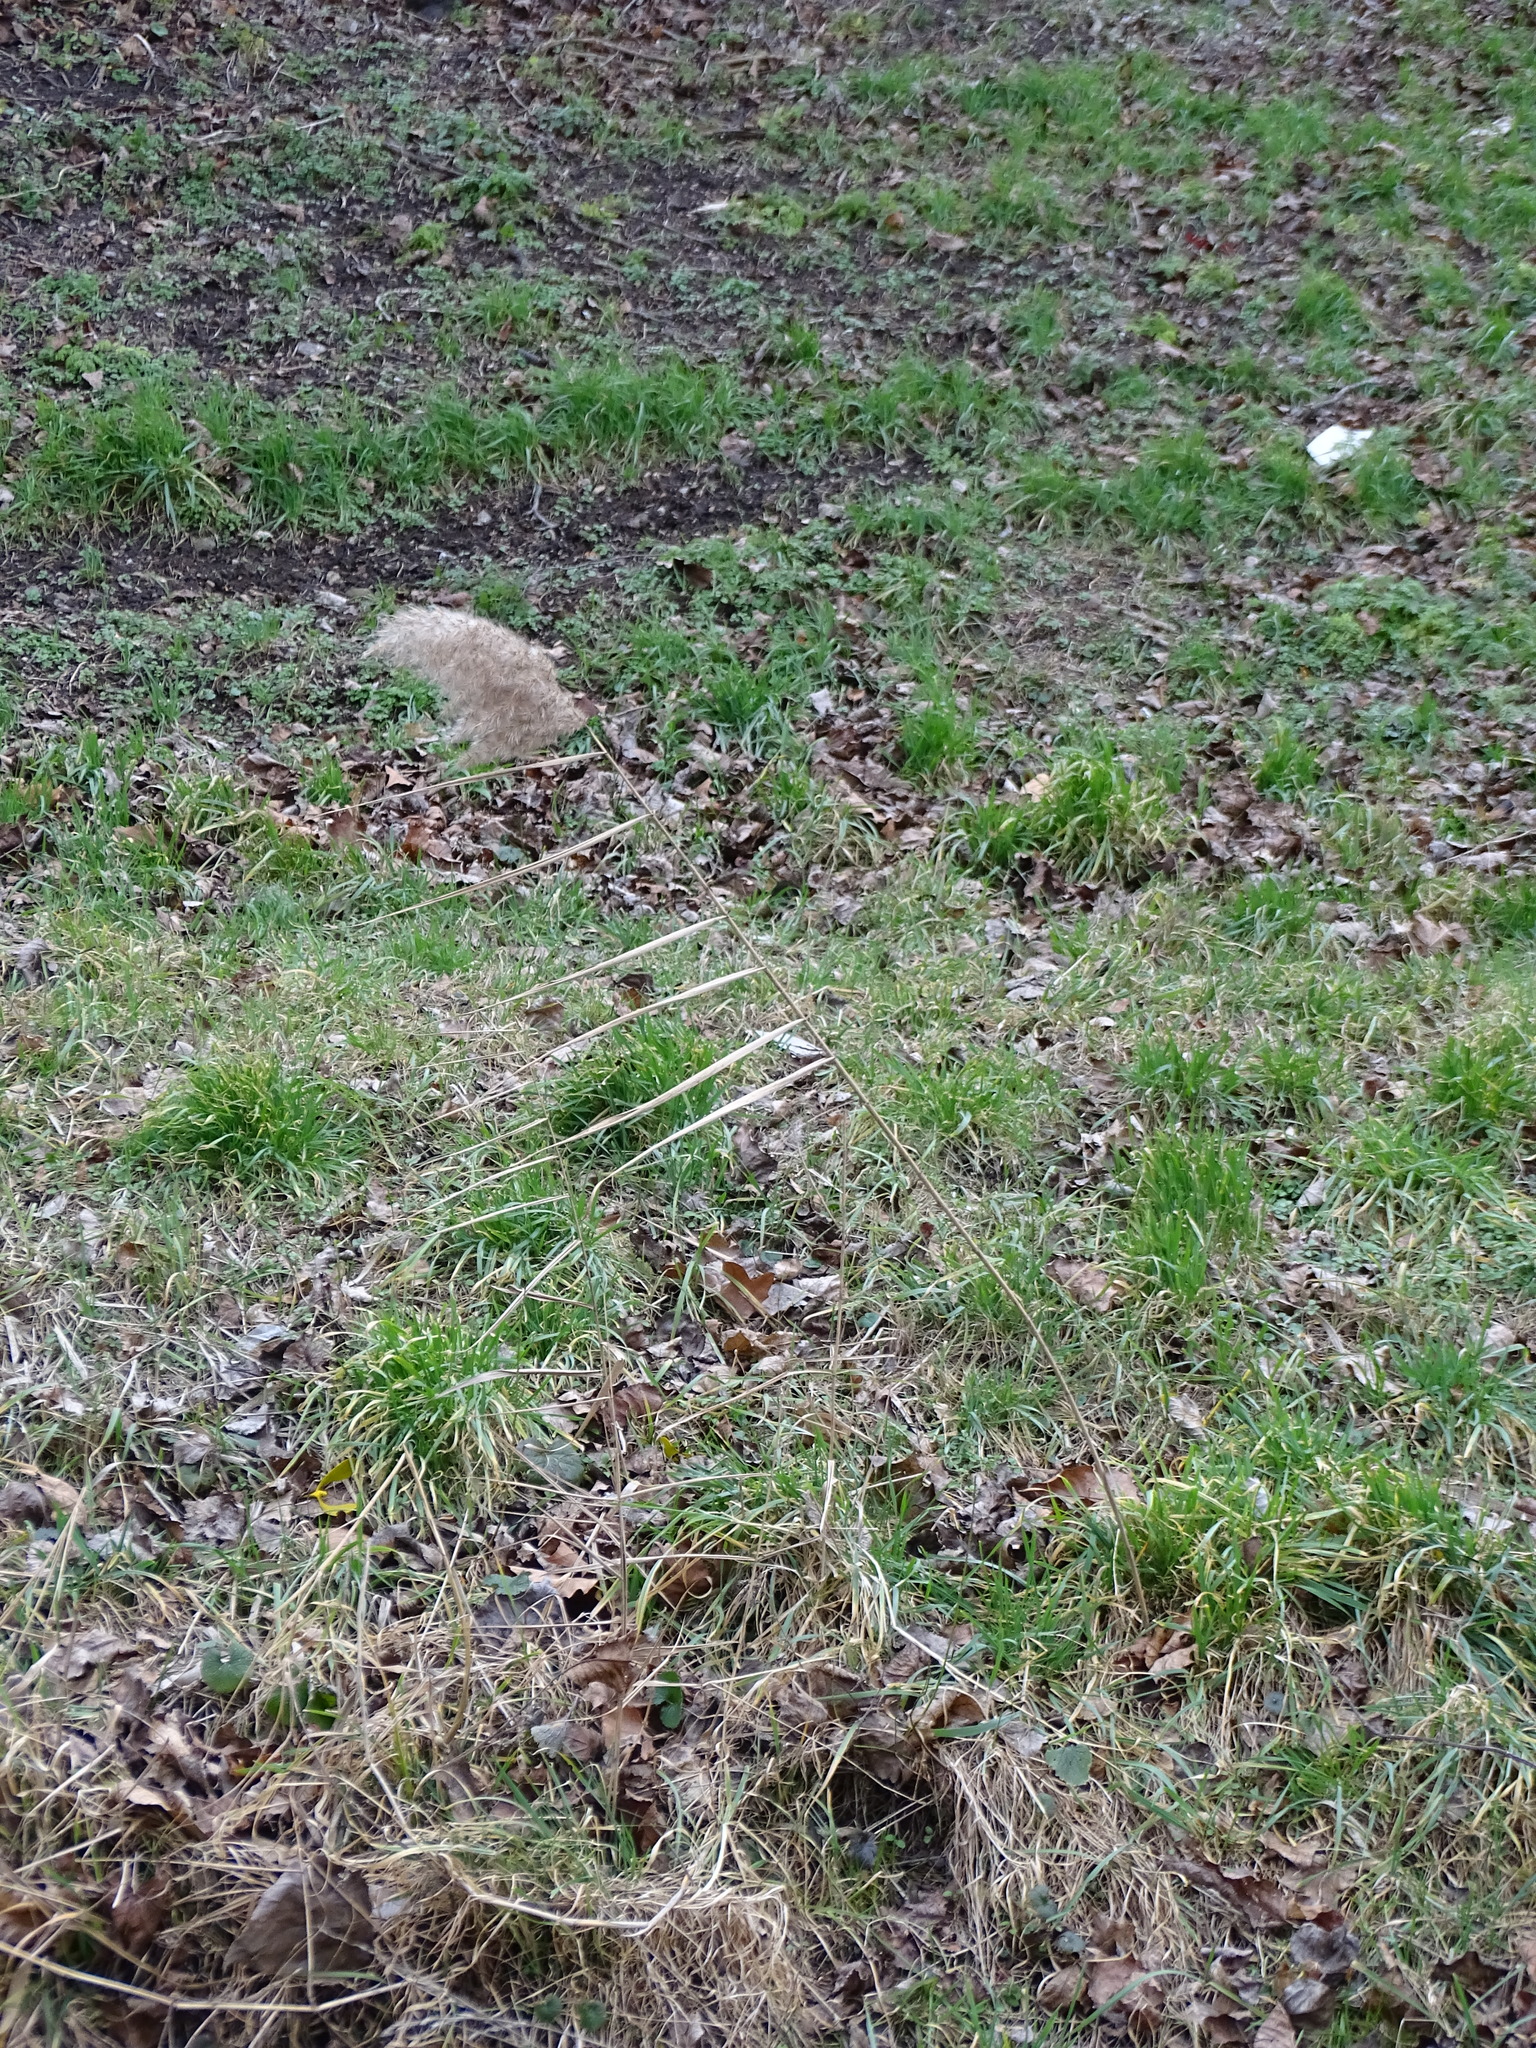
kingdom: Plantae
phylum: Tracheophyta
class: Liliopsida
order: Poales
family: Poaceae
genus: Phragmites
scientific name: Phragmites australis
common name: Common reed
